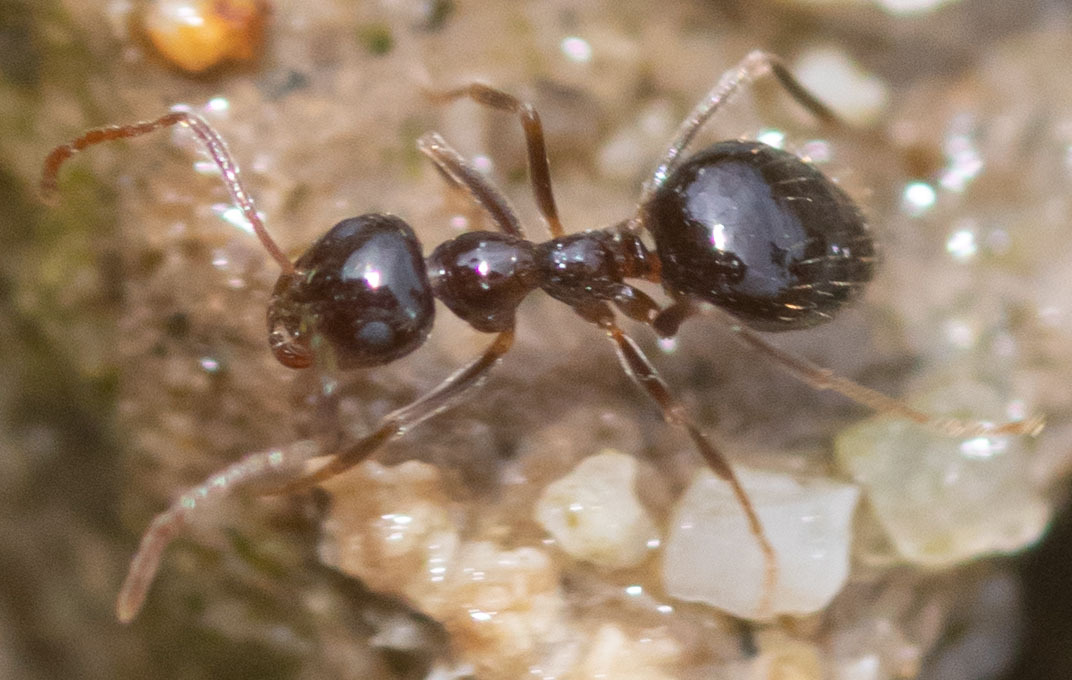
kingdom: Animalia
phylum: Arthropoda
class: Insecta
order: Hymenoptera
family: Formicidae
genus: Prenolepis
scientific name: Prenolepis imparis
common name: Small honey ant
